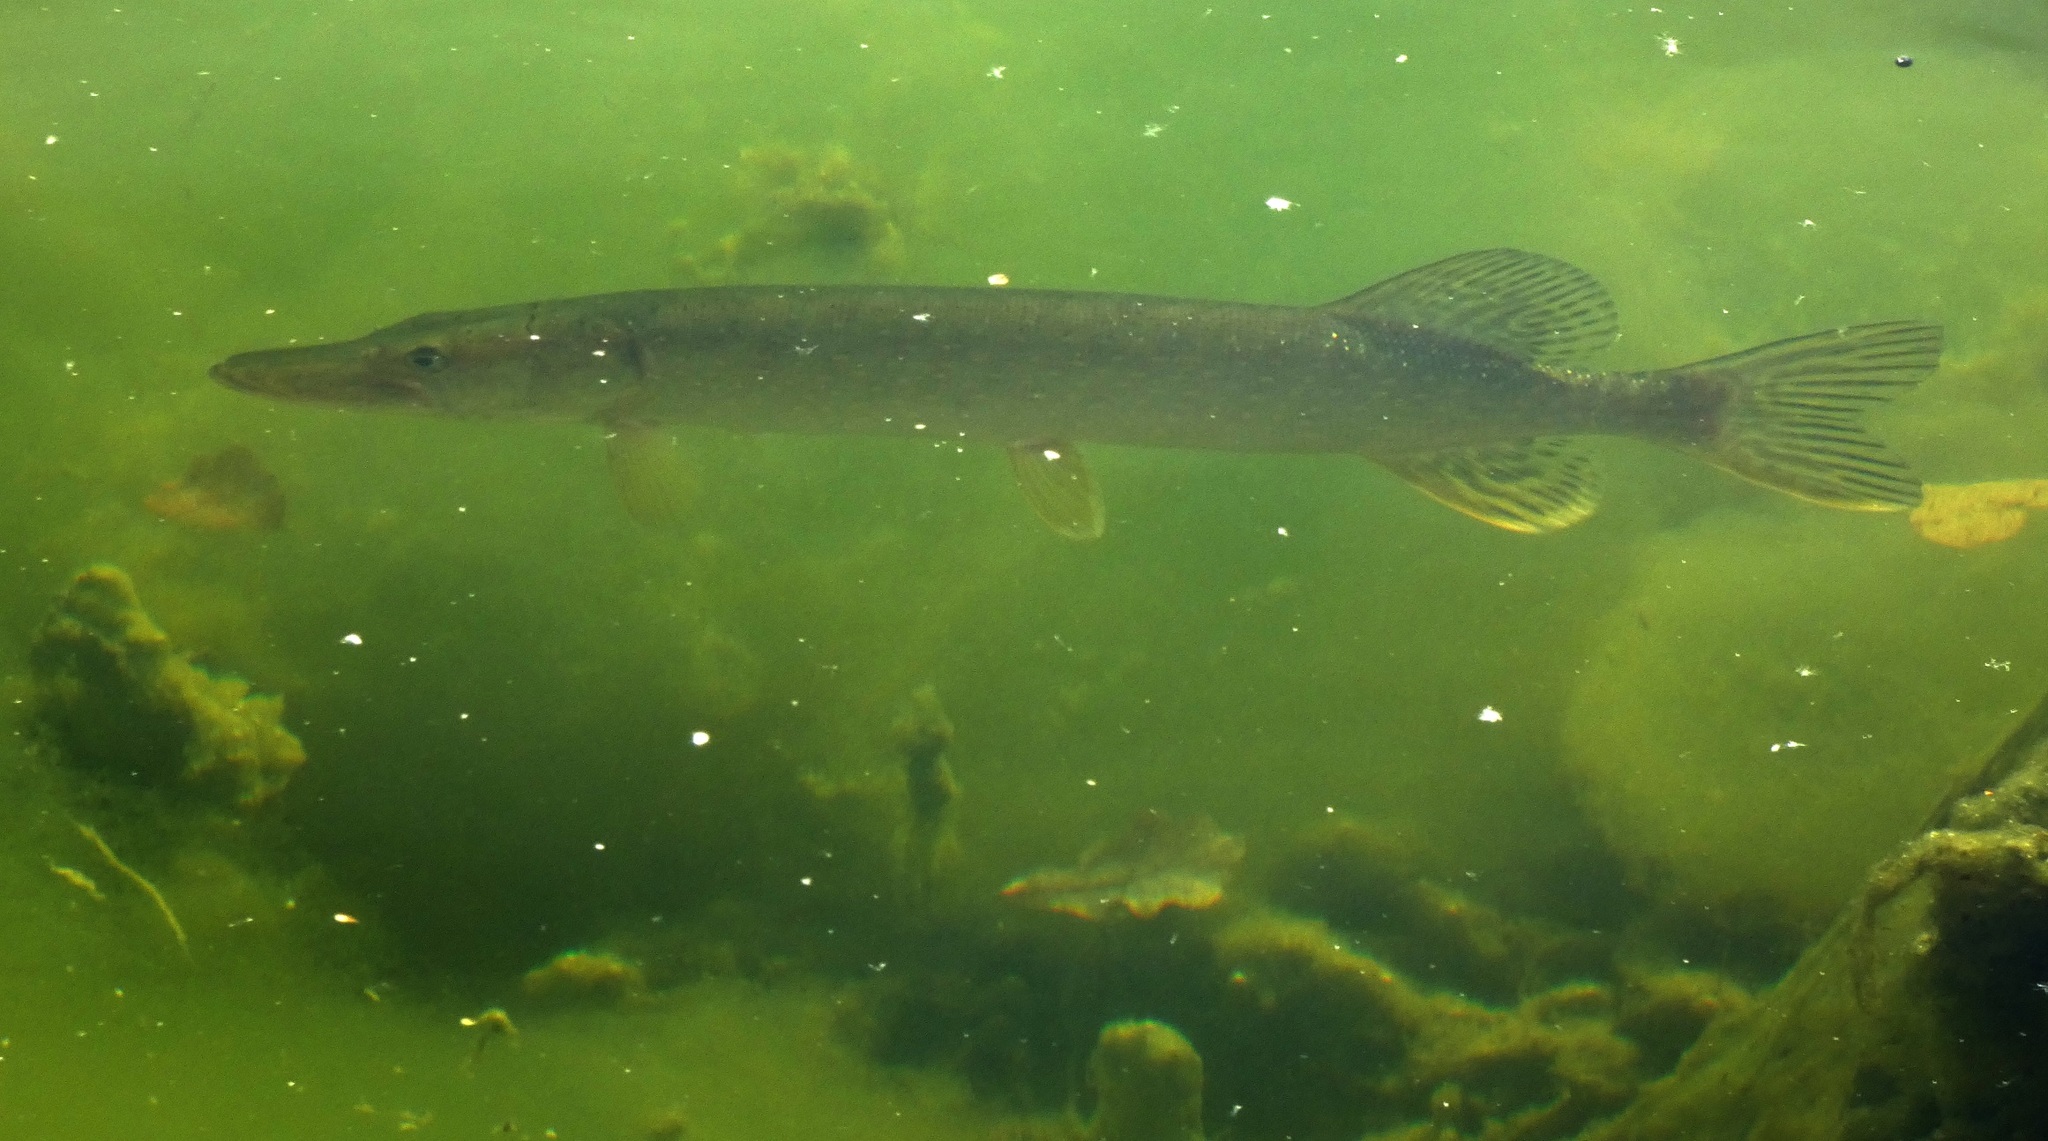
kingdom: Animalia
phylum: Chordata
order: Esociformes
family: Esocidae
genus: Esox
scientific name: Esox lucius
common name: Northern pike
